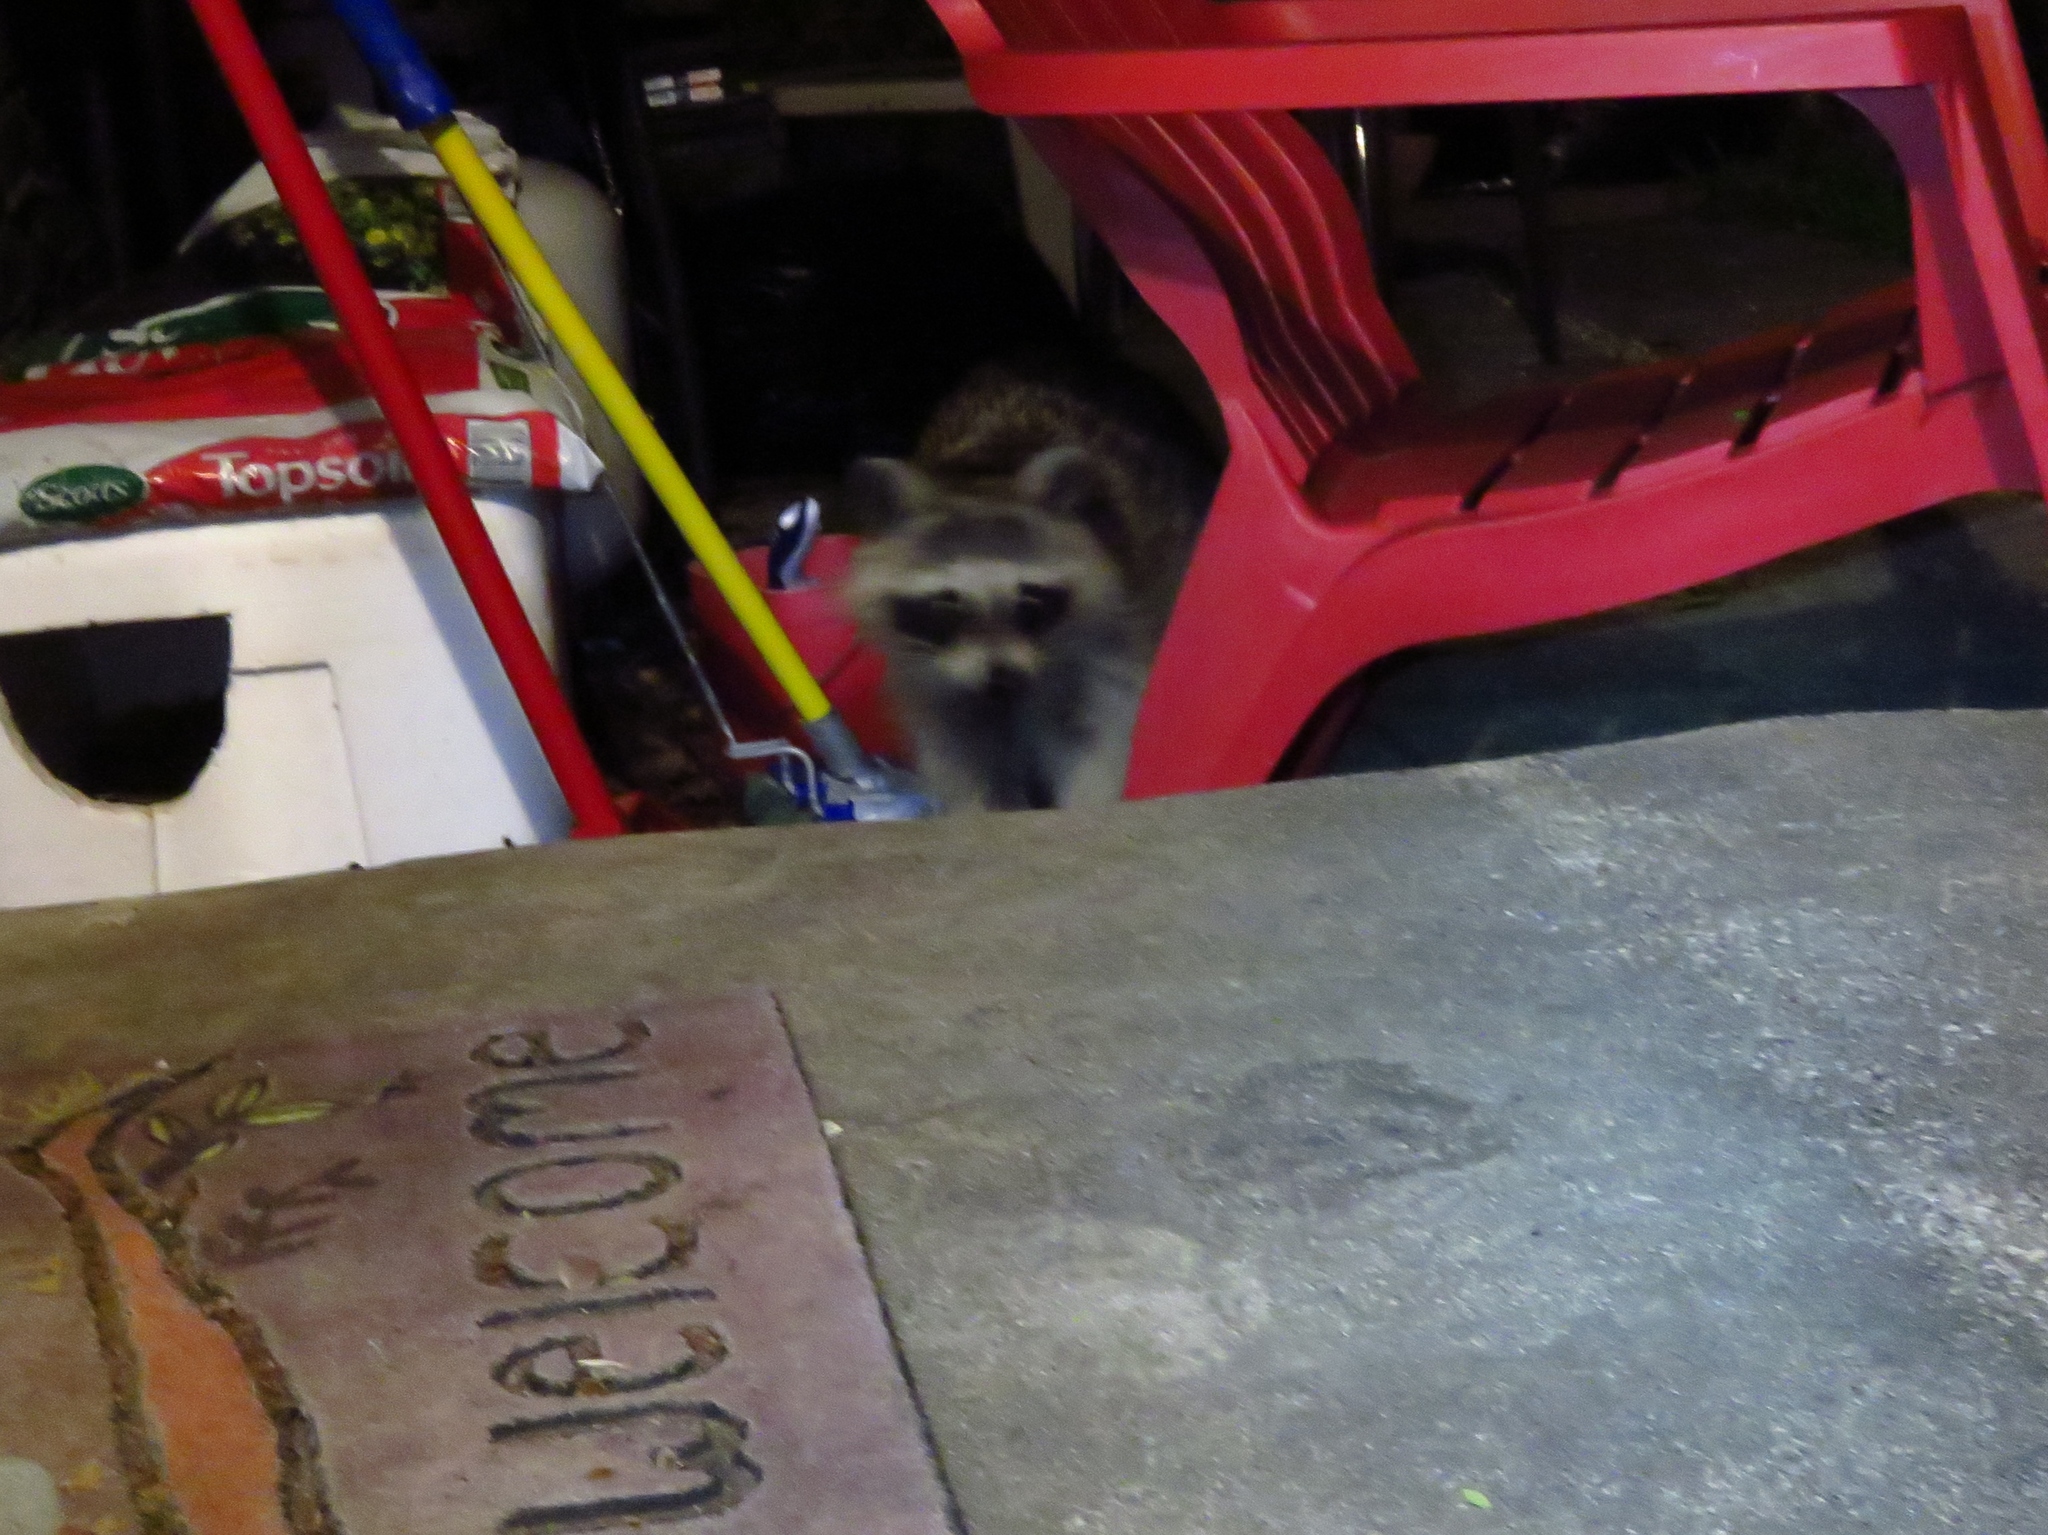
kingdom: Animalia
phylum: Chordata
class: Mammalia
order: Carnivora
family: Procyonidae
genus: Procyon
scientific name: Procyon lotor
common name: Raccoon
